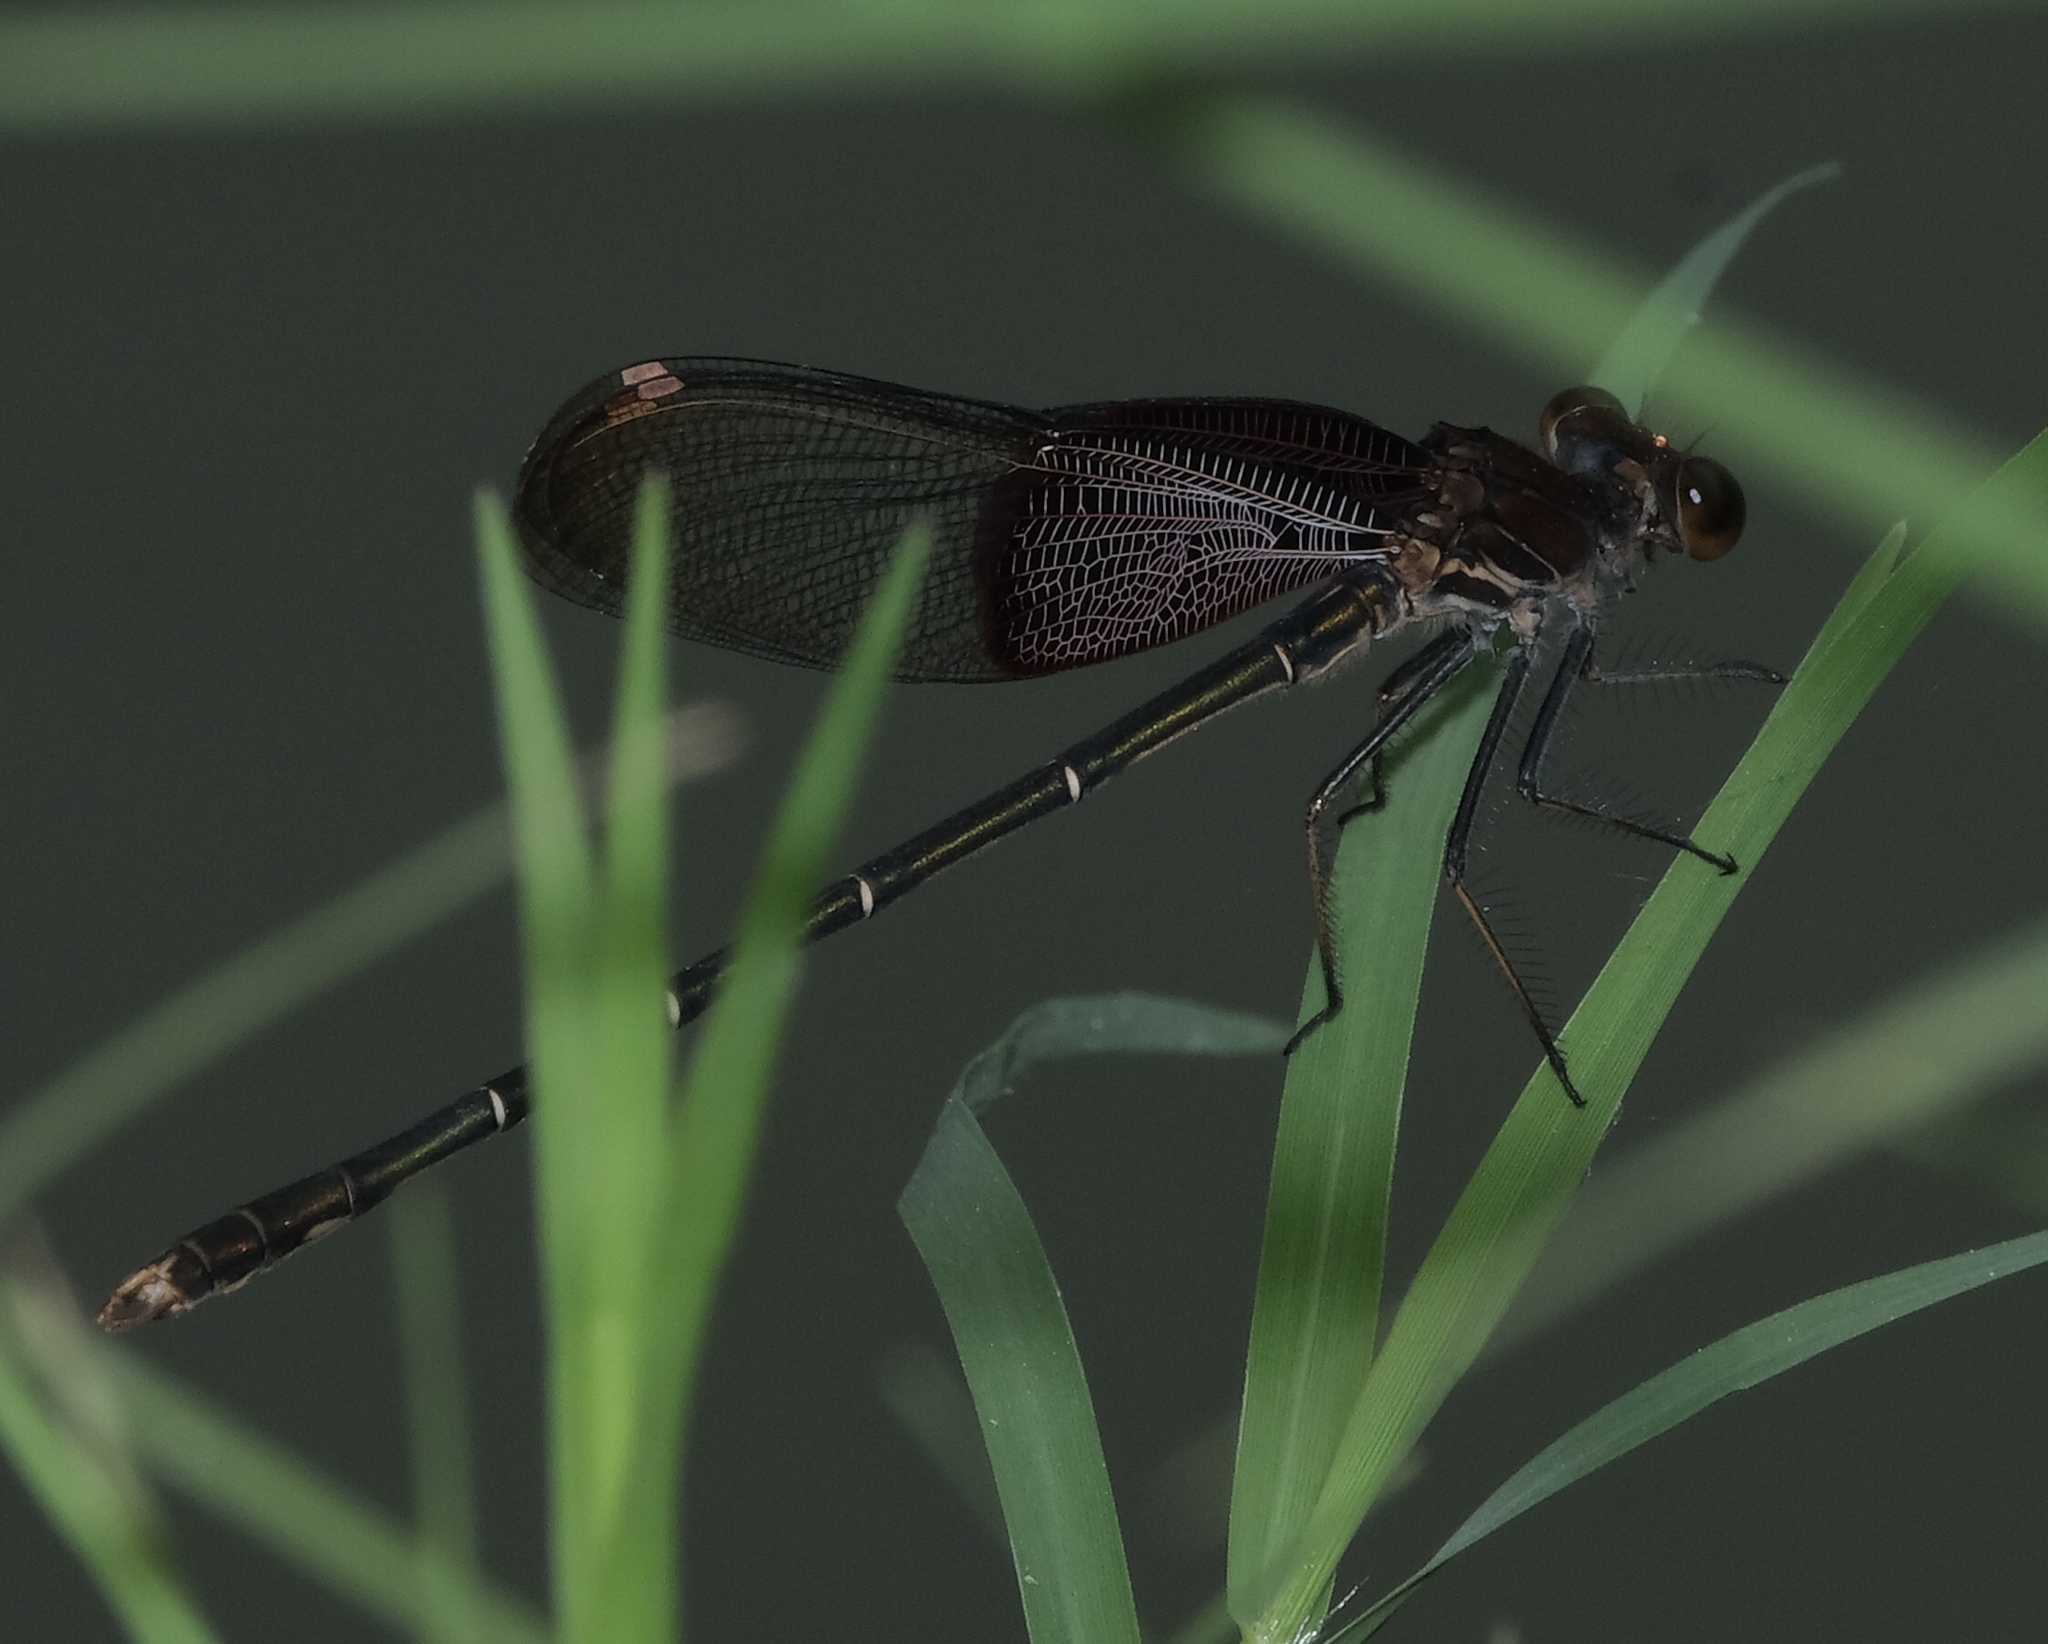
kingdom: Animalia
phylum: Arthropoda
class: Insecta
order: Odonata
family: Calopterygidae
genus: Hetaerina
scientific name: Hetaerina americana
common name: American rubyspot
